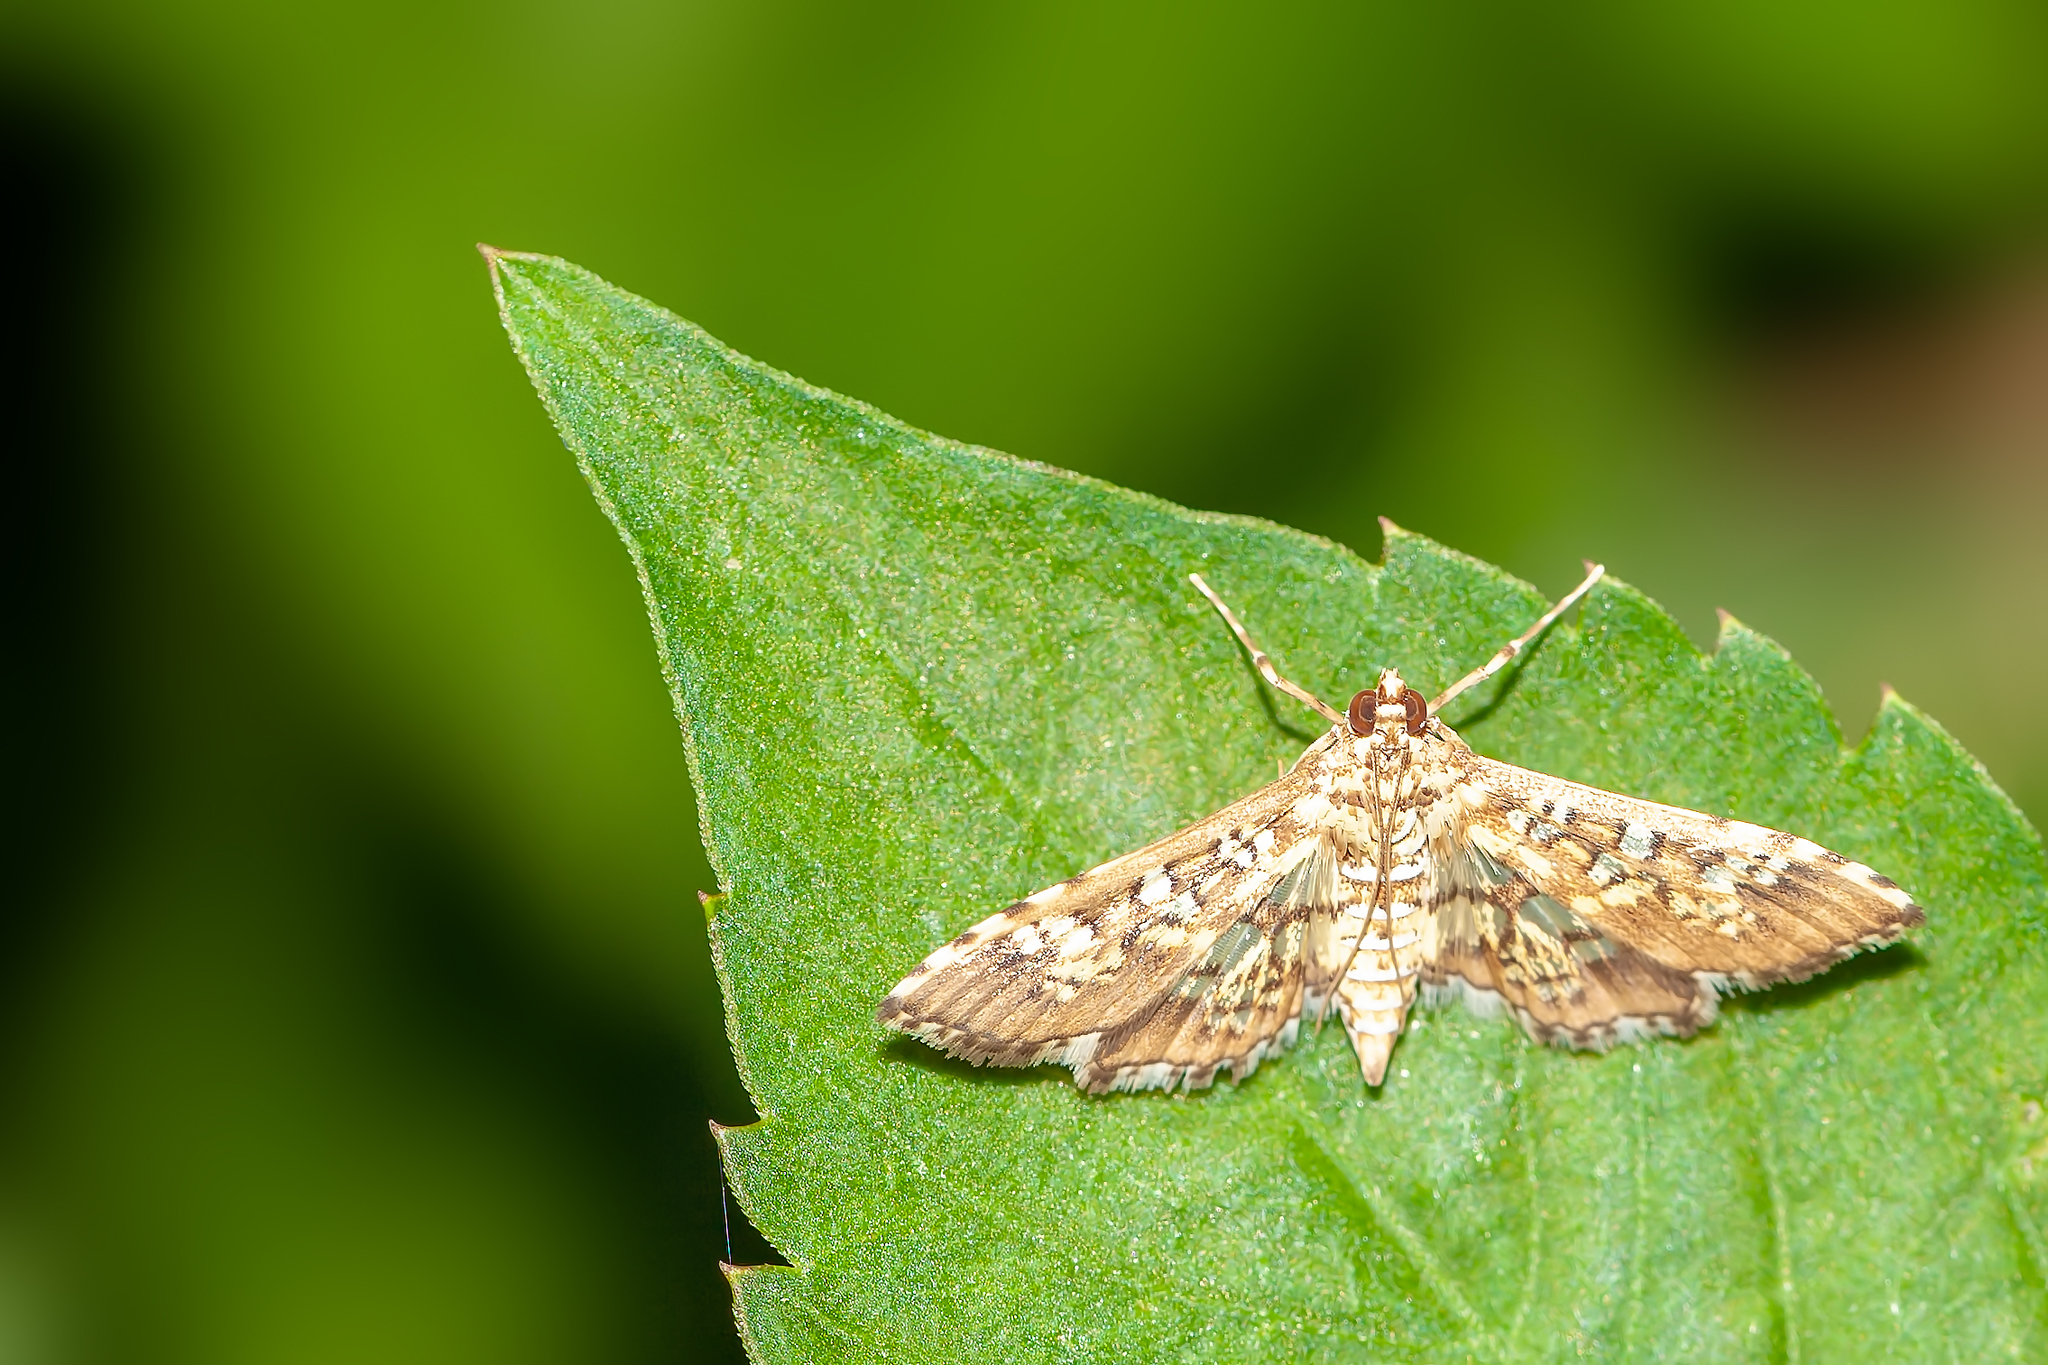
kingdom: Animalia
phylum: Arthropoda
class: Insecta
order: Lepidoptera
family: Crambidae
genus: Samea
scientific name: Samea ecclesialis
